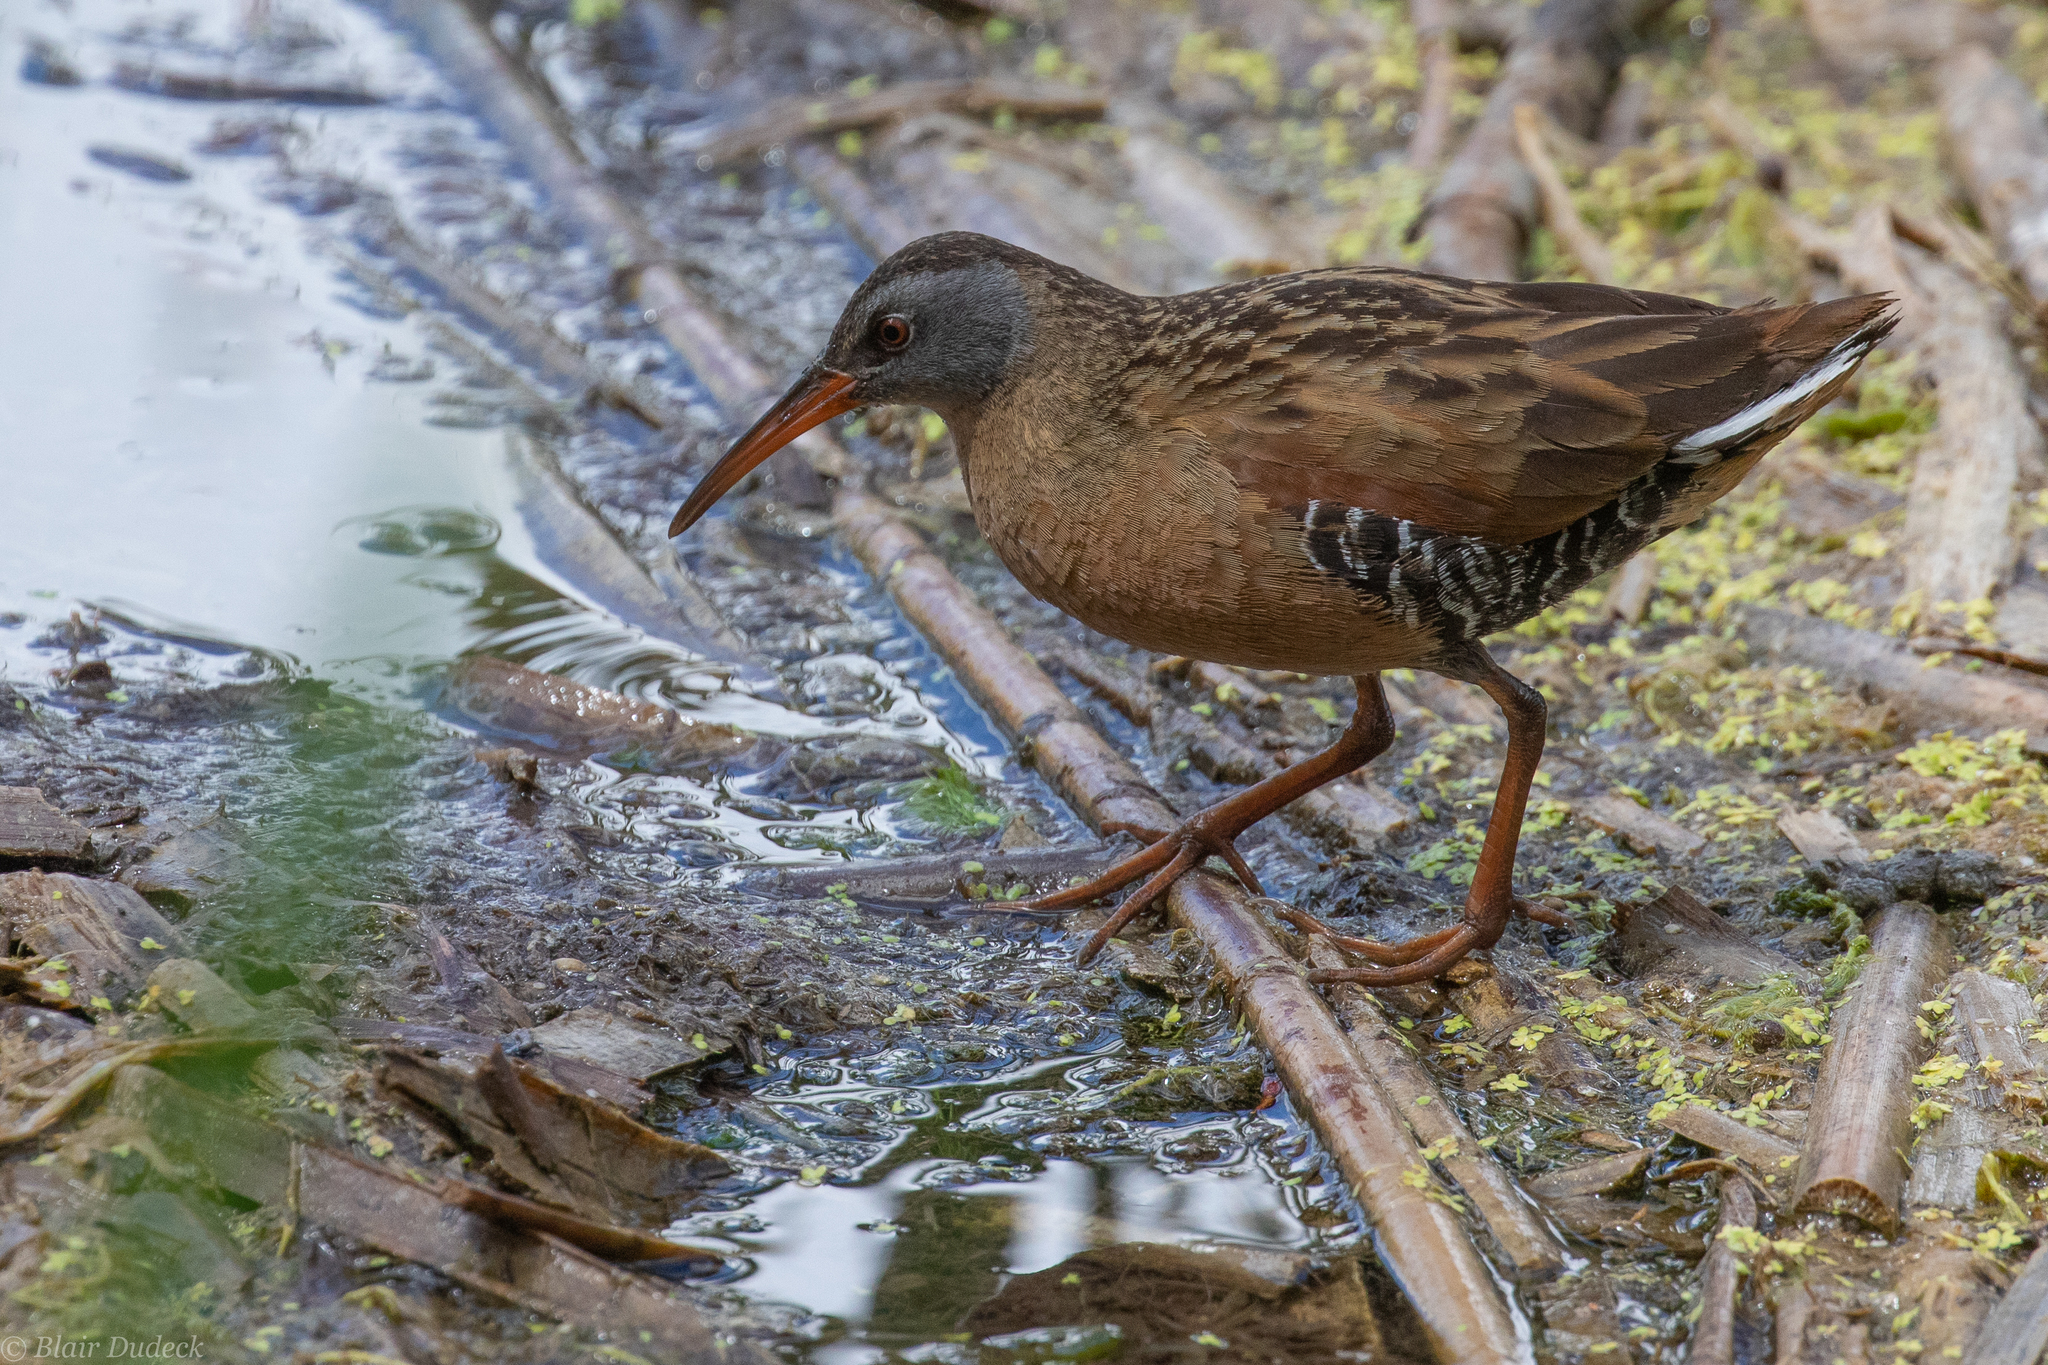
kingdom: Animalia
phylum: Chordata
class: Aves
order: Gruiformes
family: Rallidae
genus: Rallus
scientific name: Rallus limicola
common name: Virginia rail
